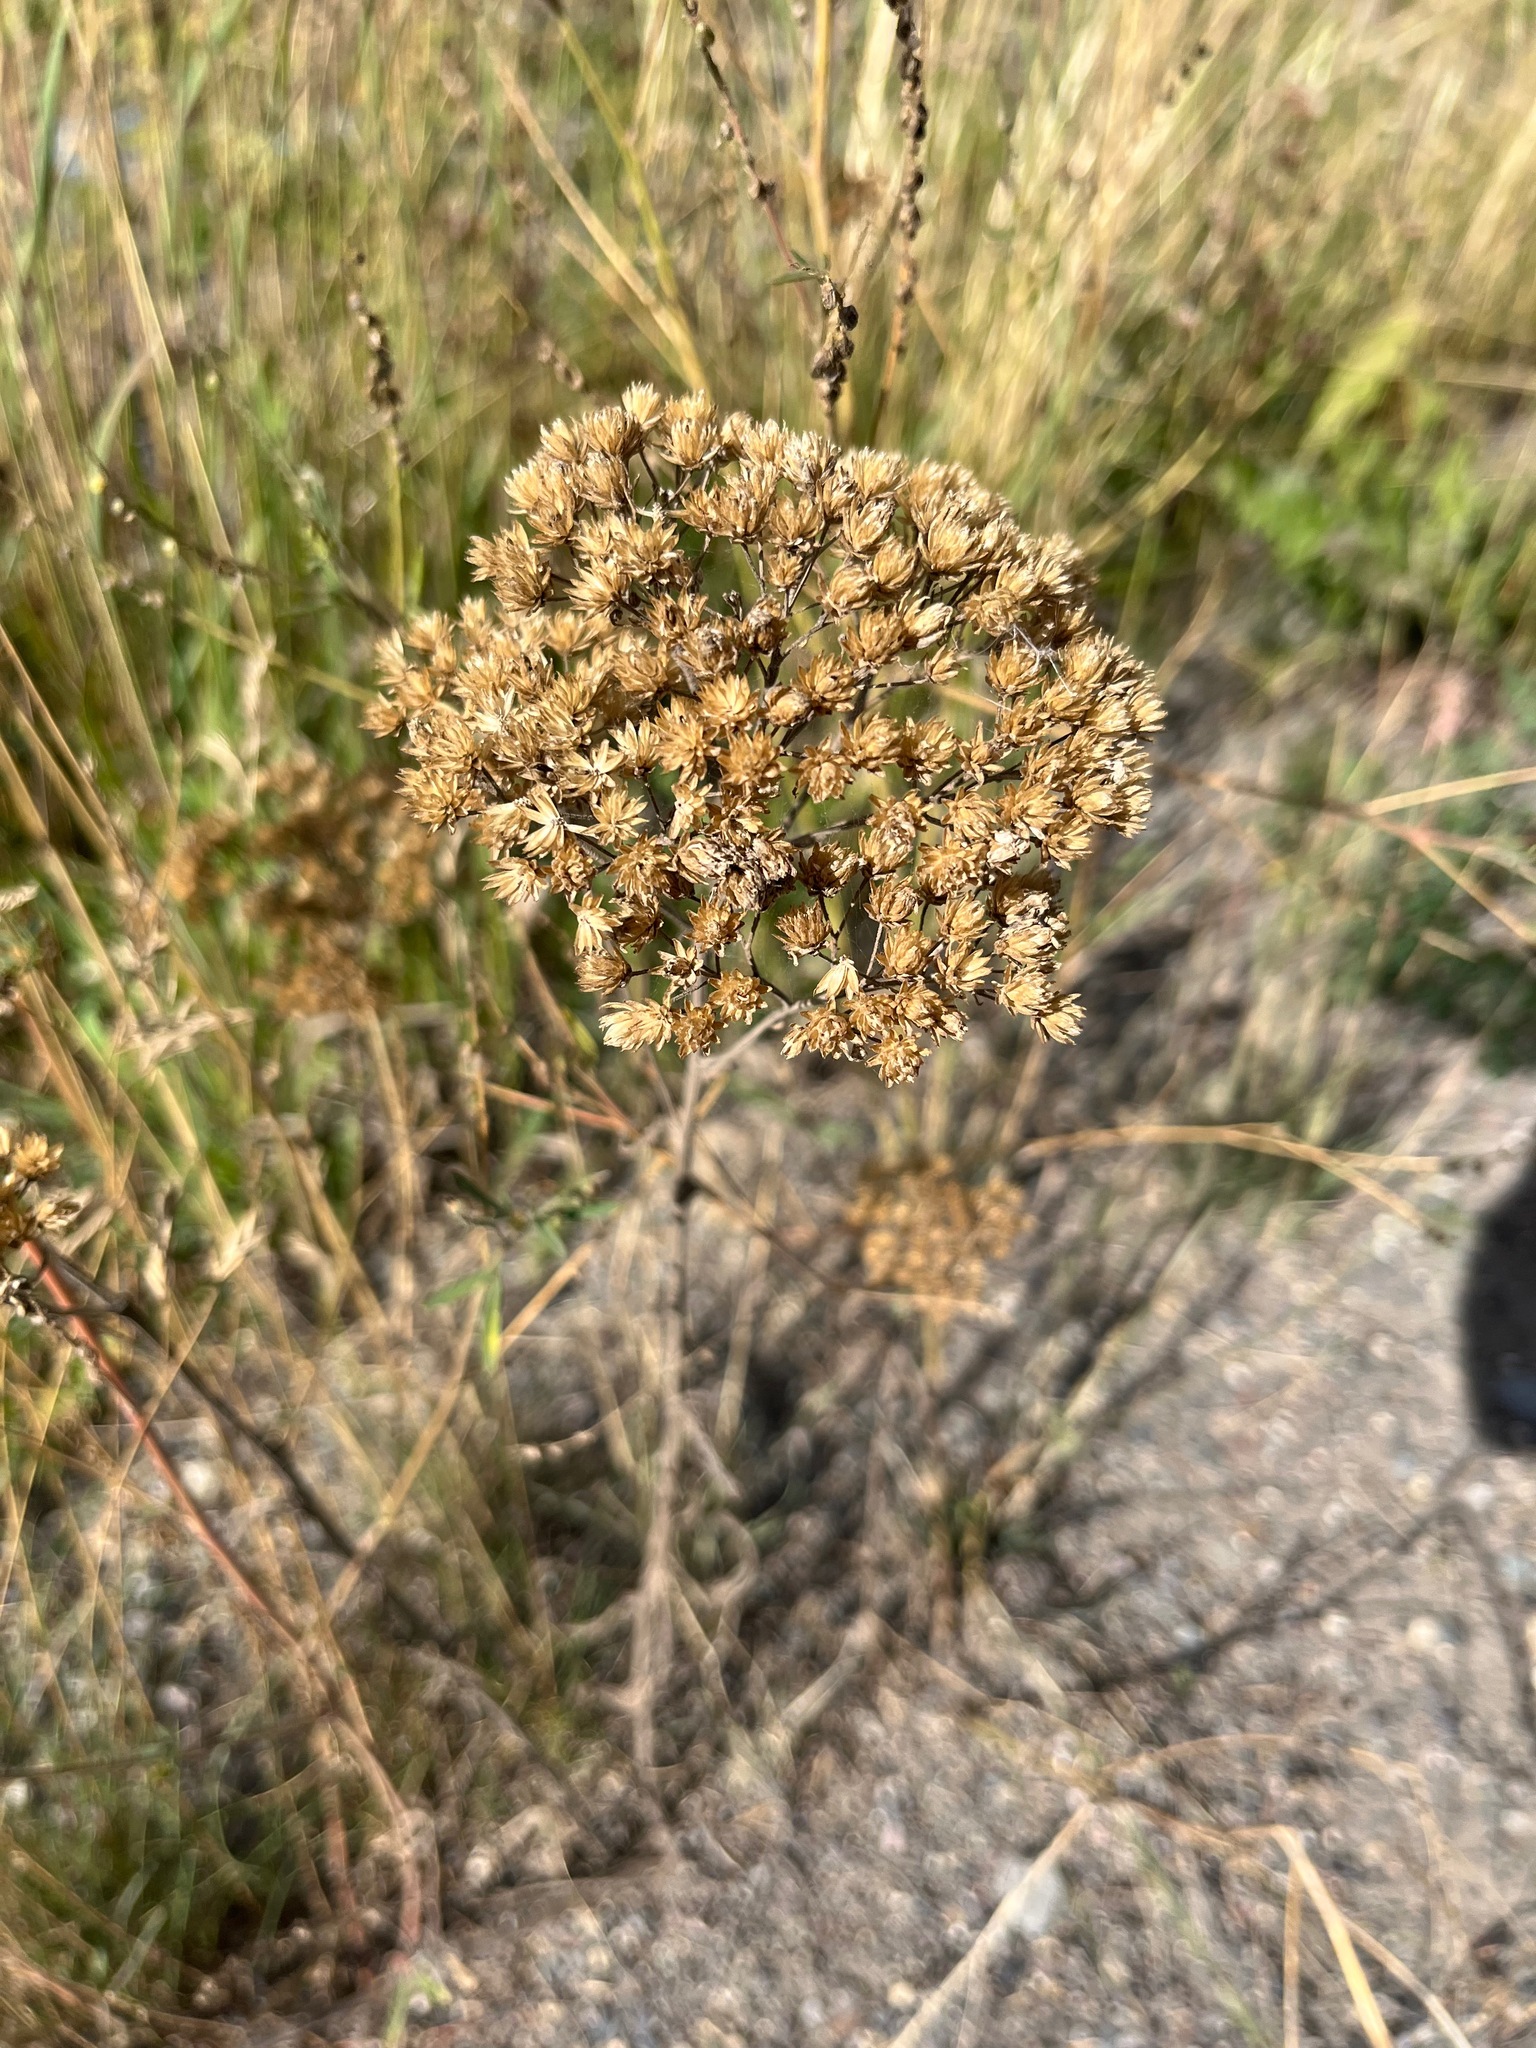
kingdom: Plantae
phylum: Tracheophyta
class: Magnoliopsida
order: Asterales
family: Asteraceae
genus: Achillea
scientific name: Achillea millefolium
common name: Yarrow
